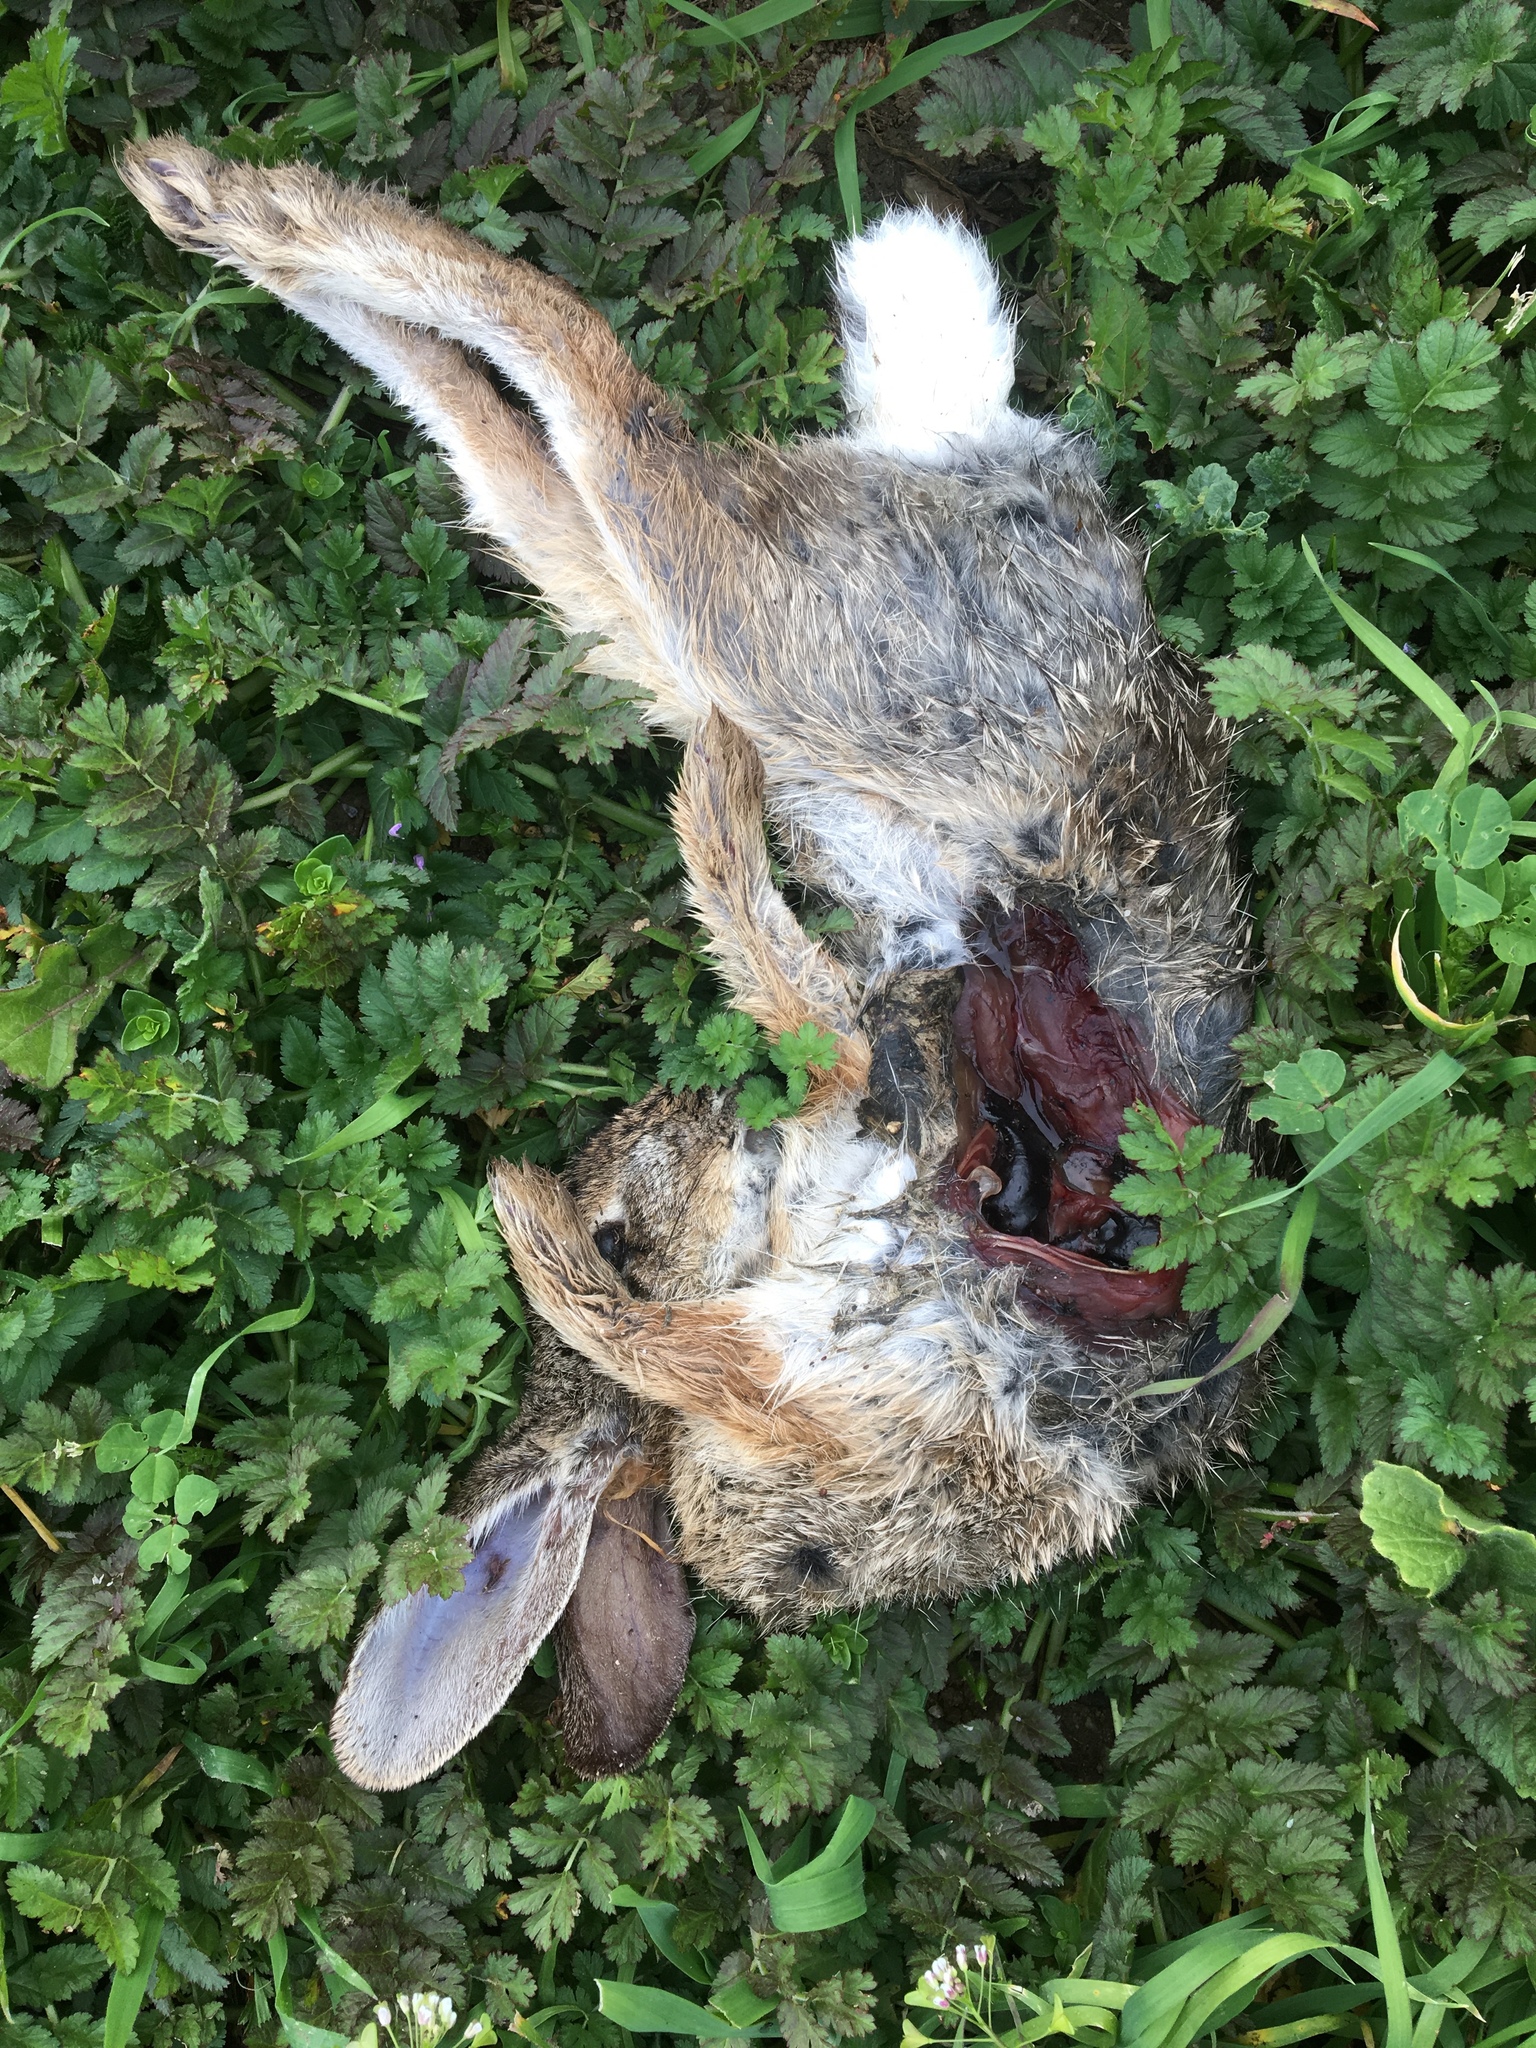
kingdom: Animalia
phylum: Chordata
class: Mammalia
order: Lagomorpha
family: Leporidae
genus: Sylvilagus
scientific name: Sylvilagus audubonii
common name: Desert cottontail
